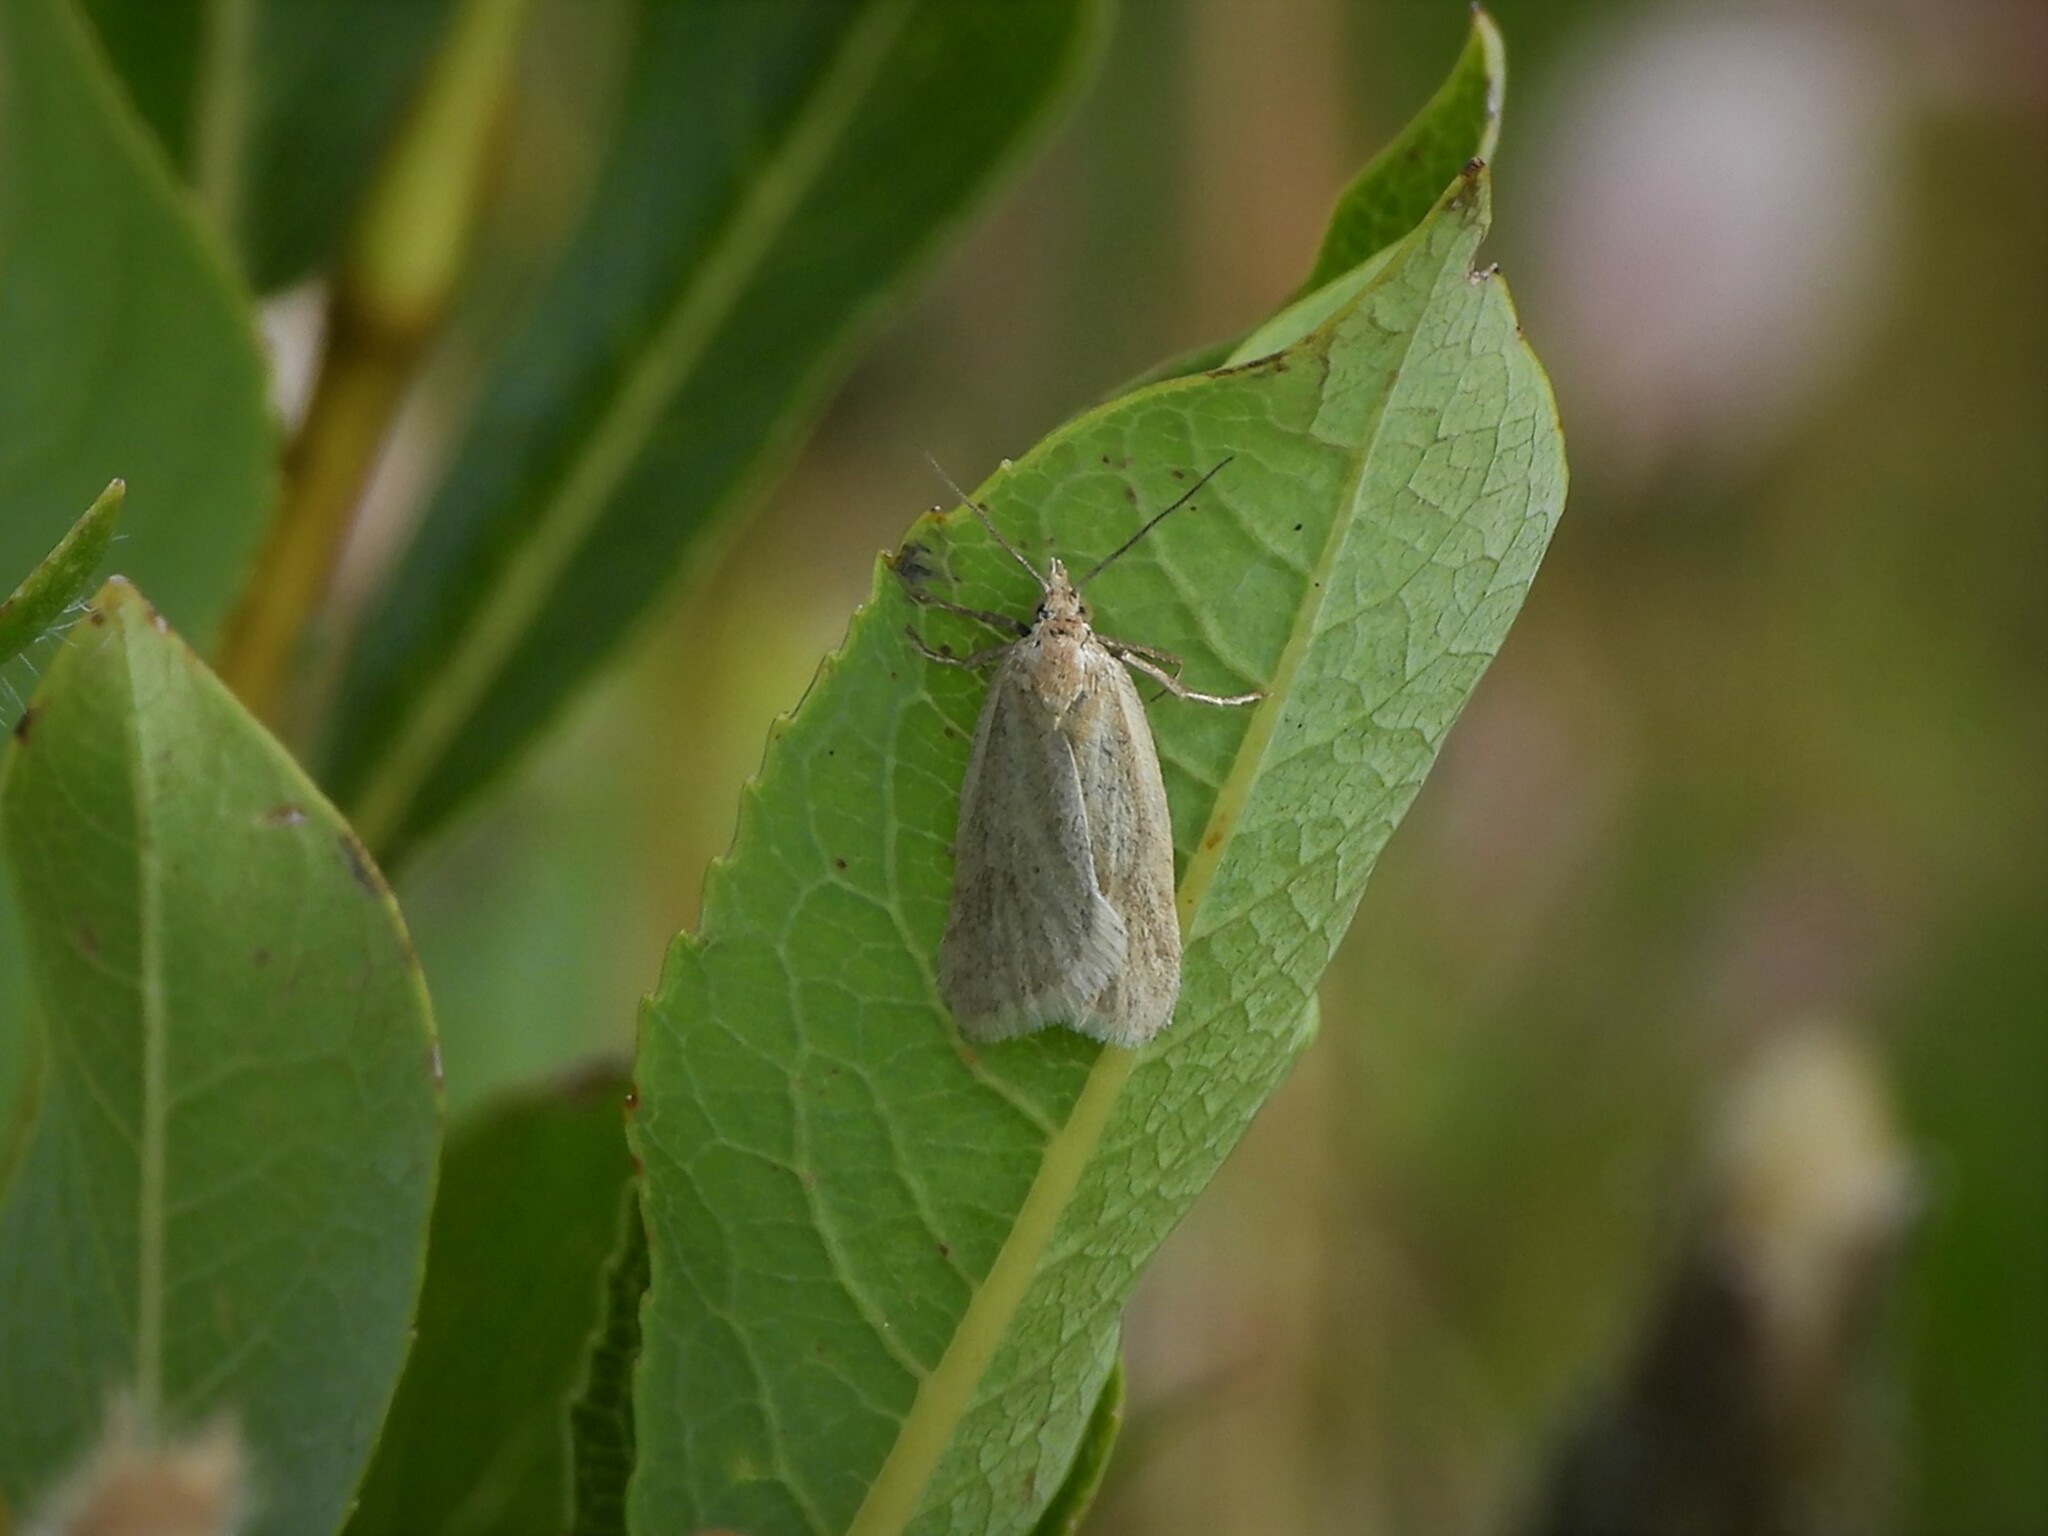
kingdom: Animalia
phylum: Arthropoda
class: Insecta
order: Lepidoptera
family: Tortricidae
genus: Eana
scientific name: Eana osseana
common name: Dotted shade
